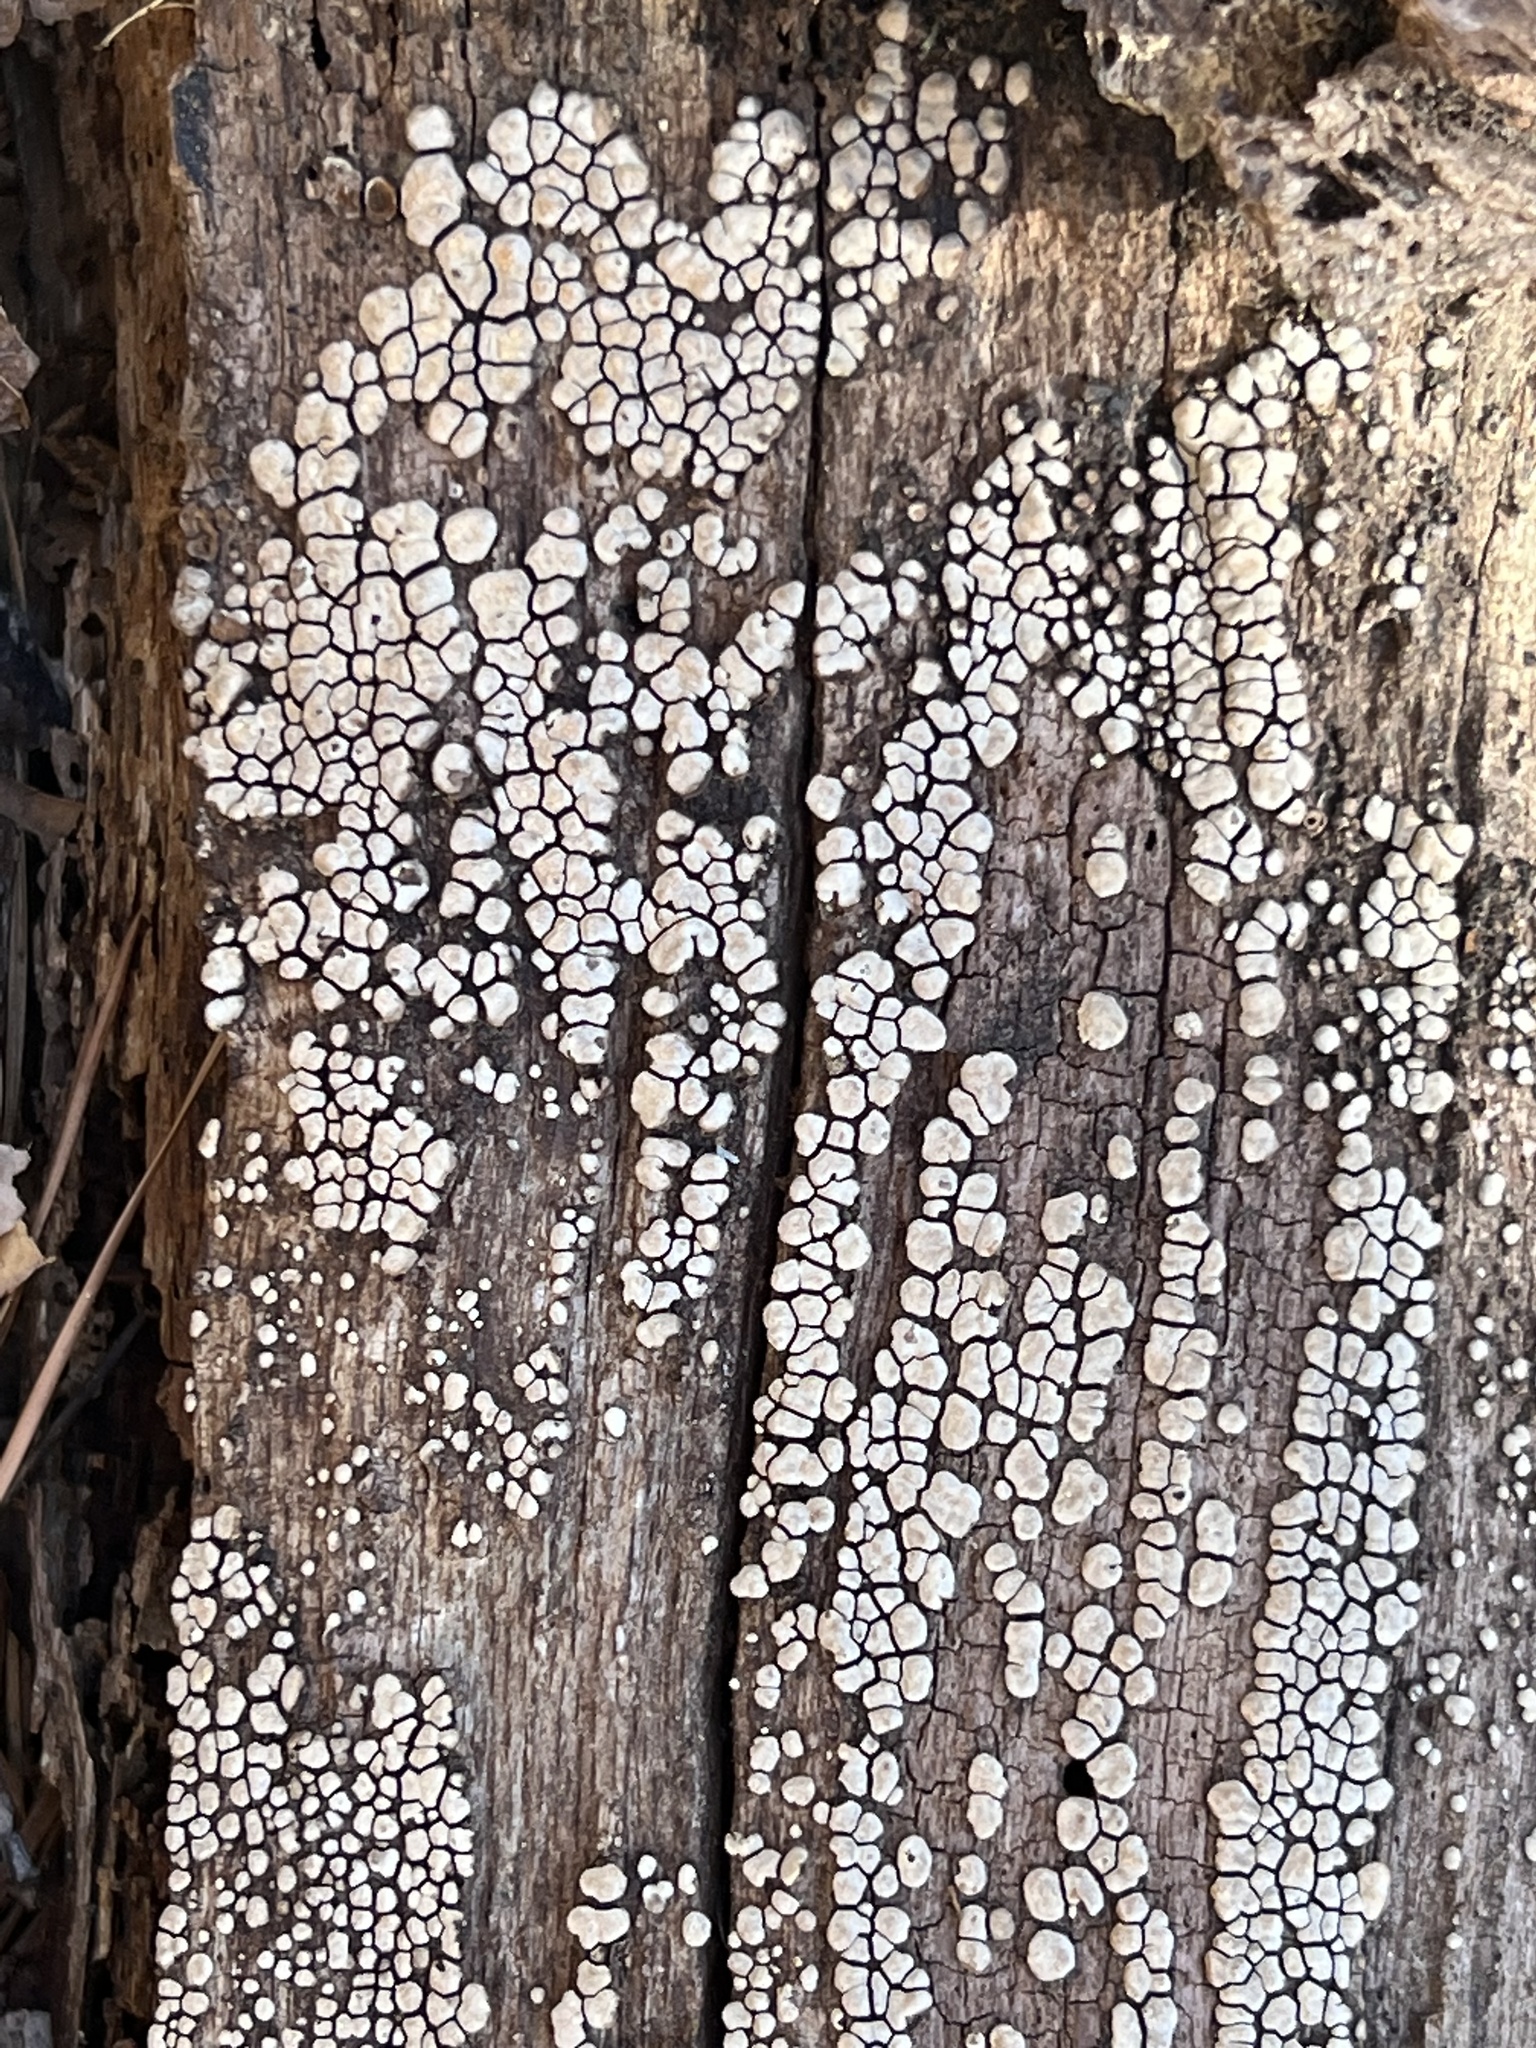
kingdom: Fungi
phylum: Basidiomycota
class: Agaricomycetes
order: Russulales
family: Stereaceae
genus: Xylobolus
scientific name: Xylobolus frustulatus
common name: Ceramic parchment
